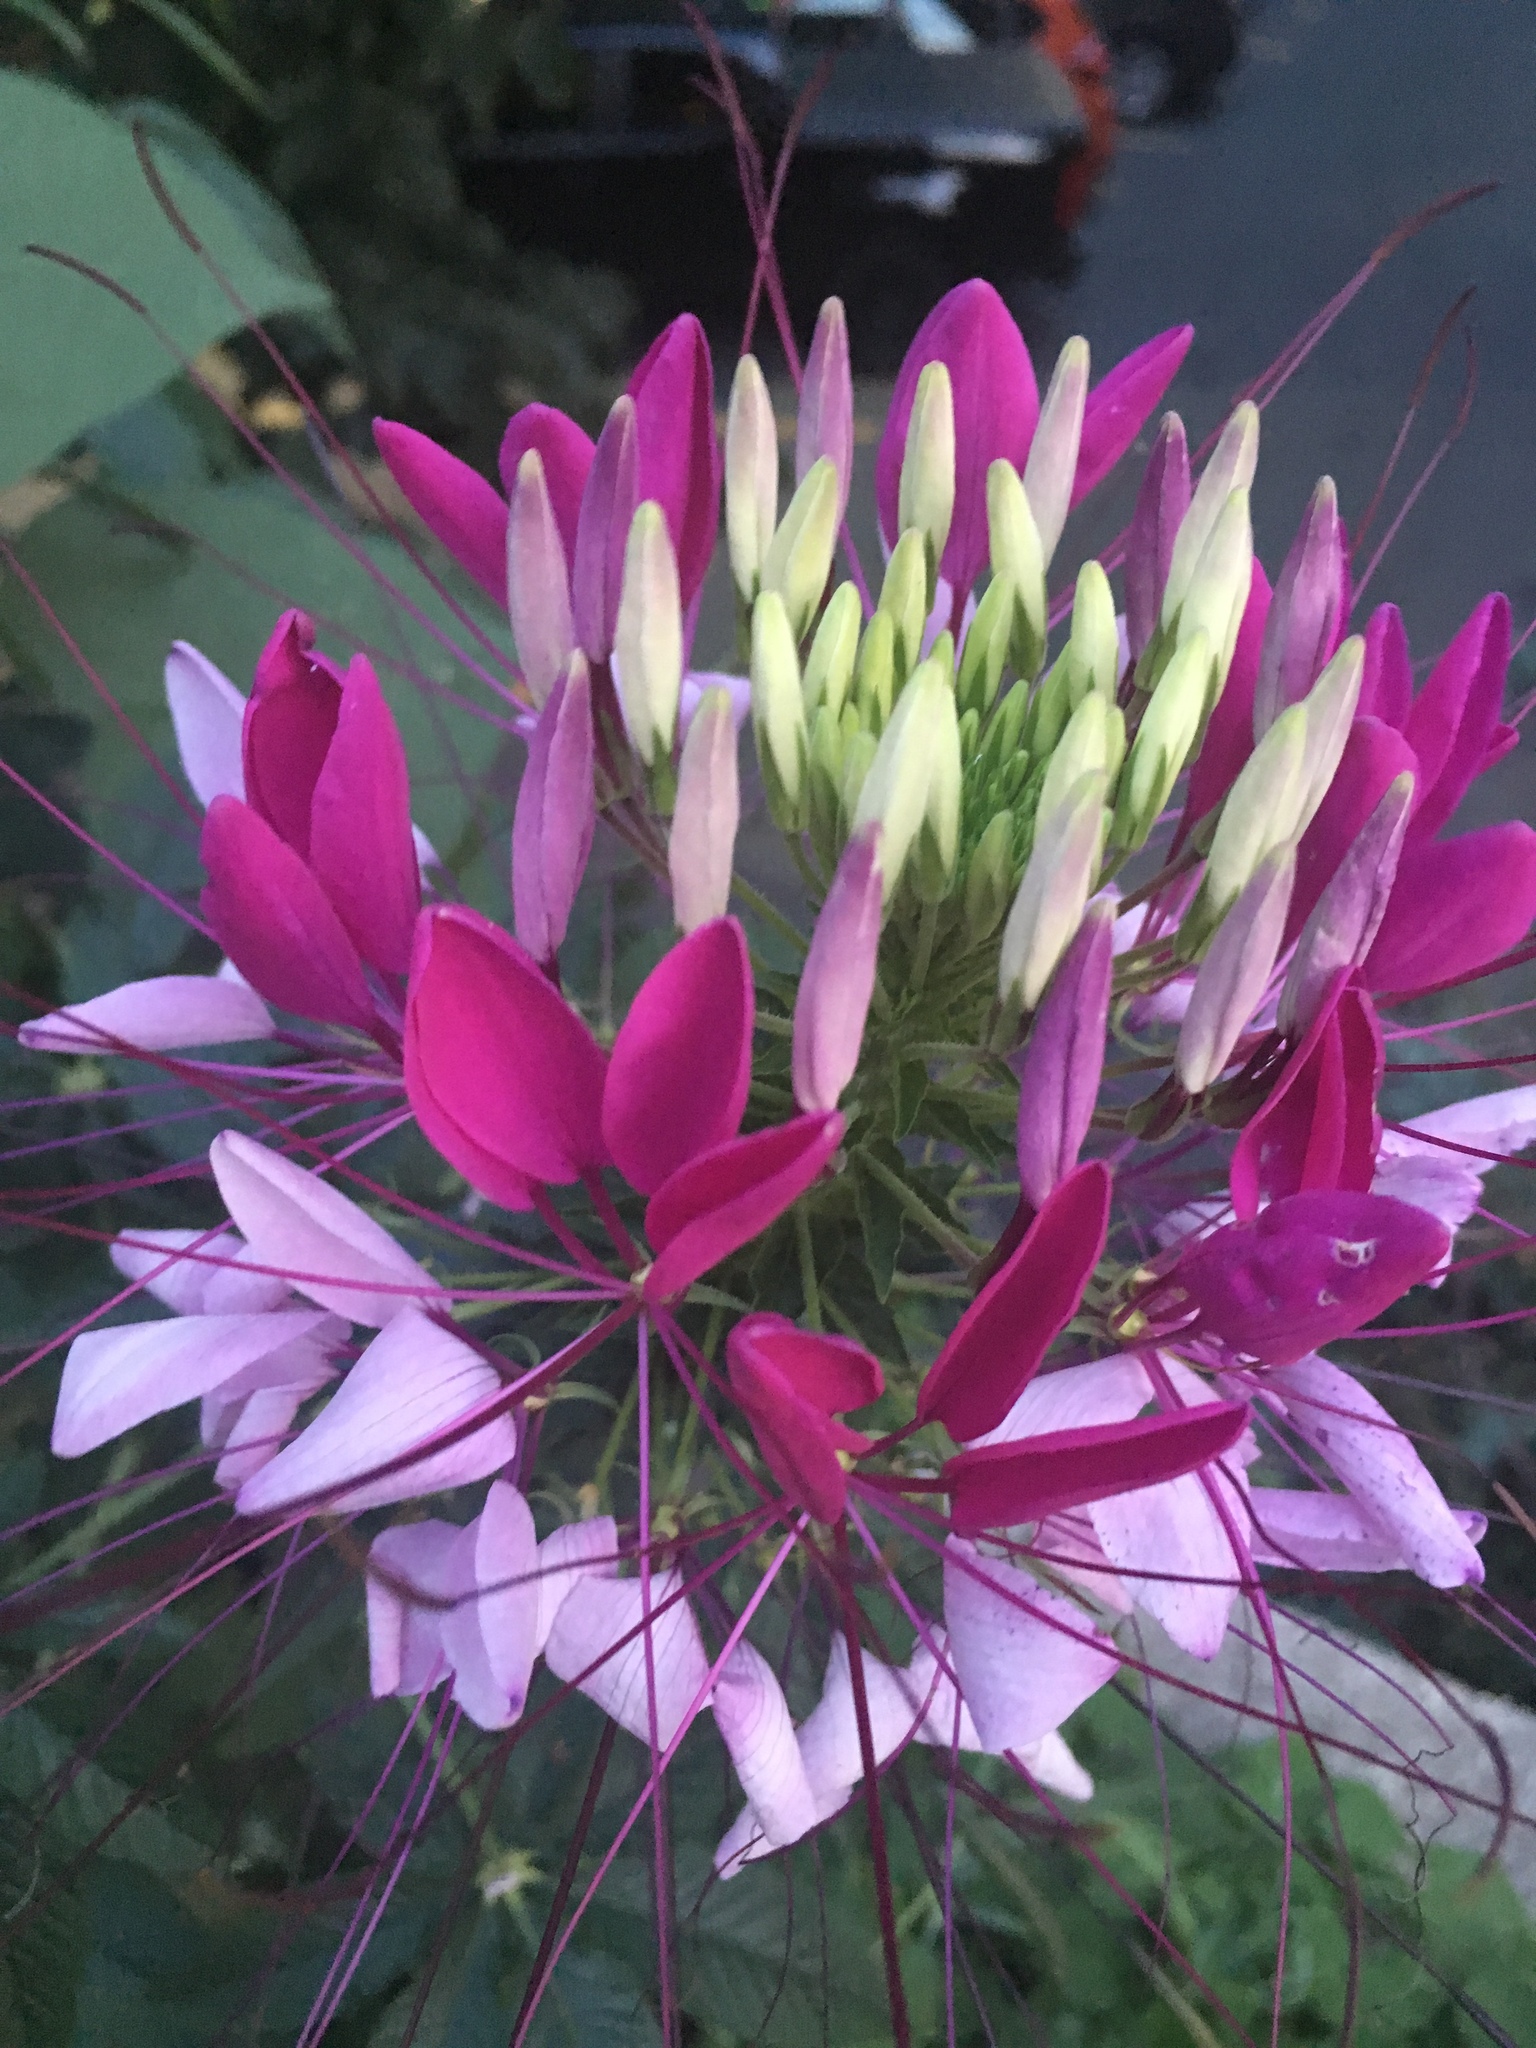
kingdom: Plantae
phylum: Tracheophyta
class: Magnoliopsida
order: Brassicales
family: Cleomaceae
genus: Tarenaya
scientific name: Tarenaya houtteana
